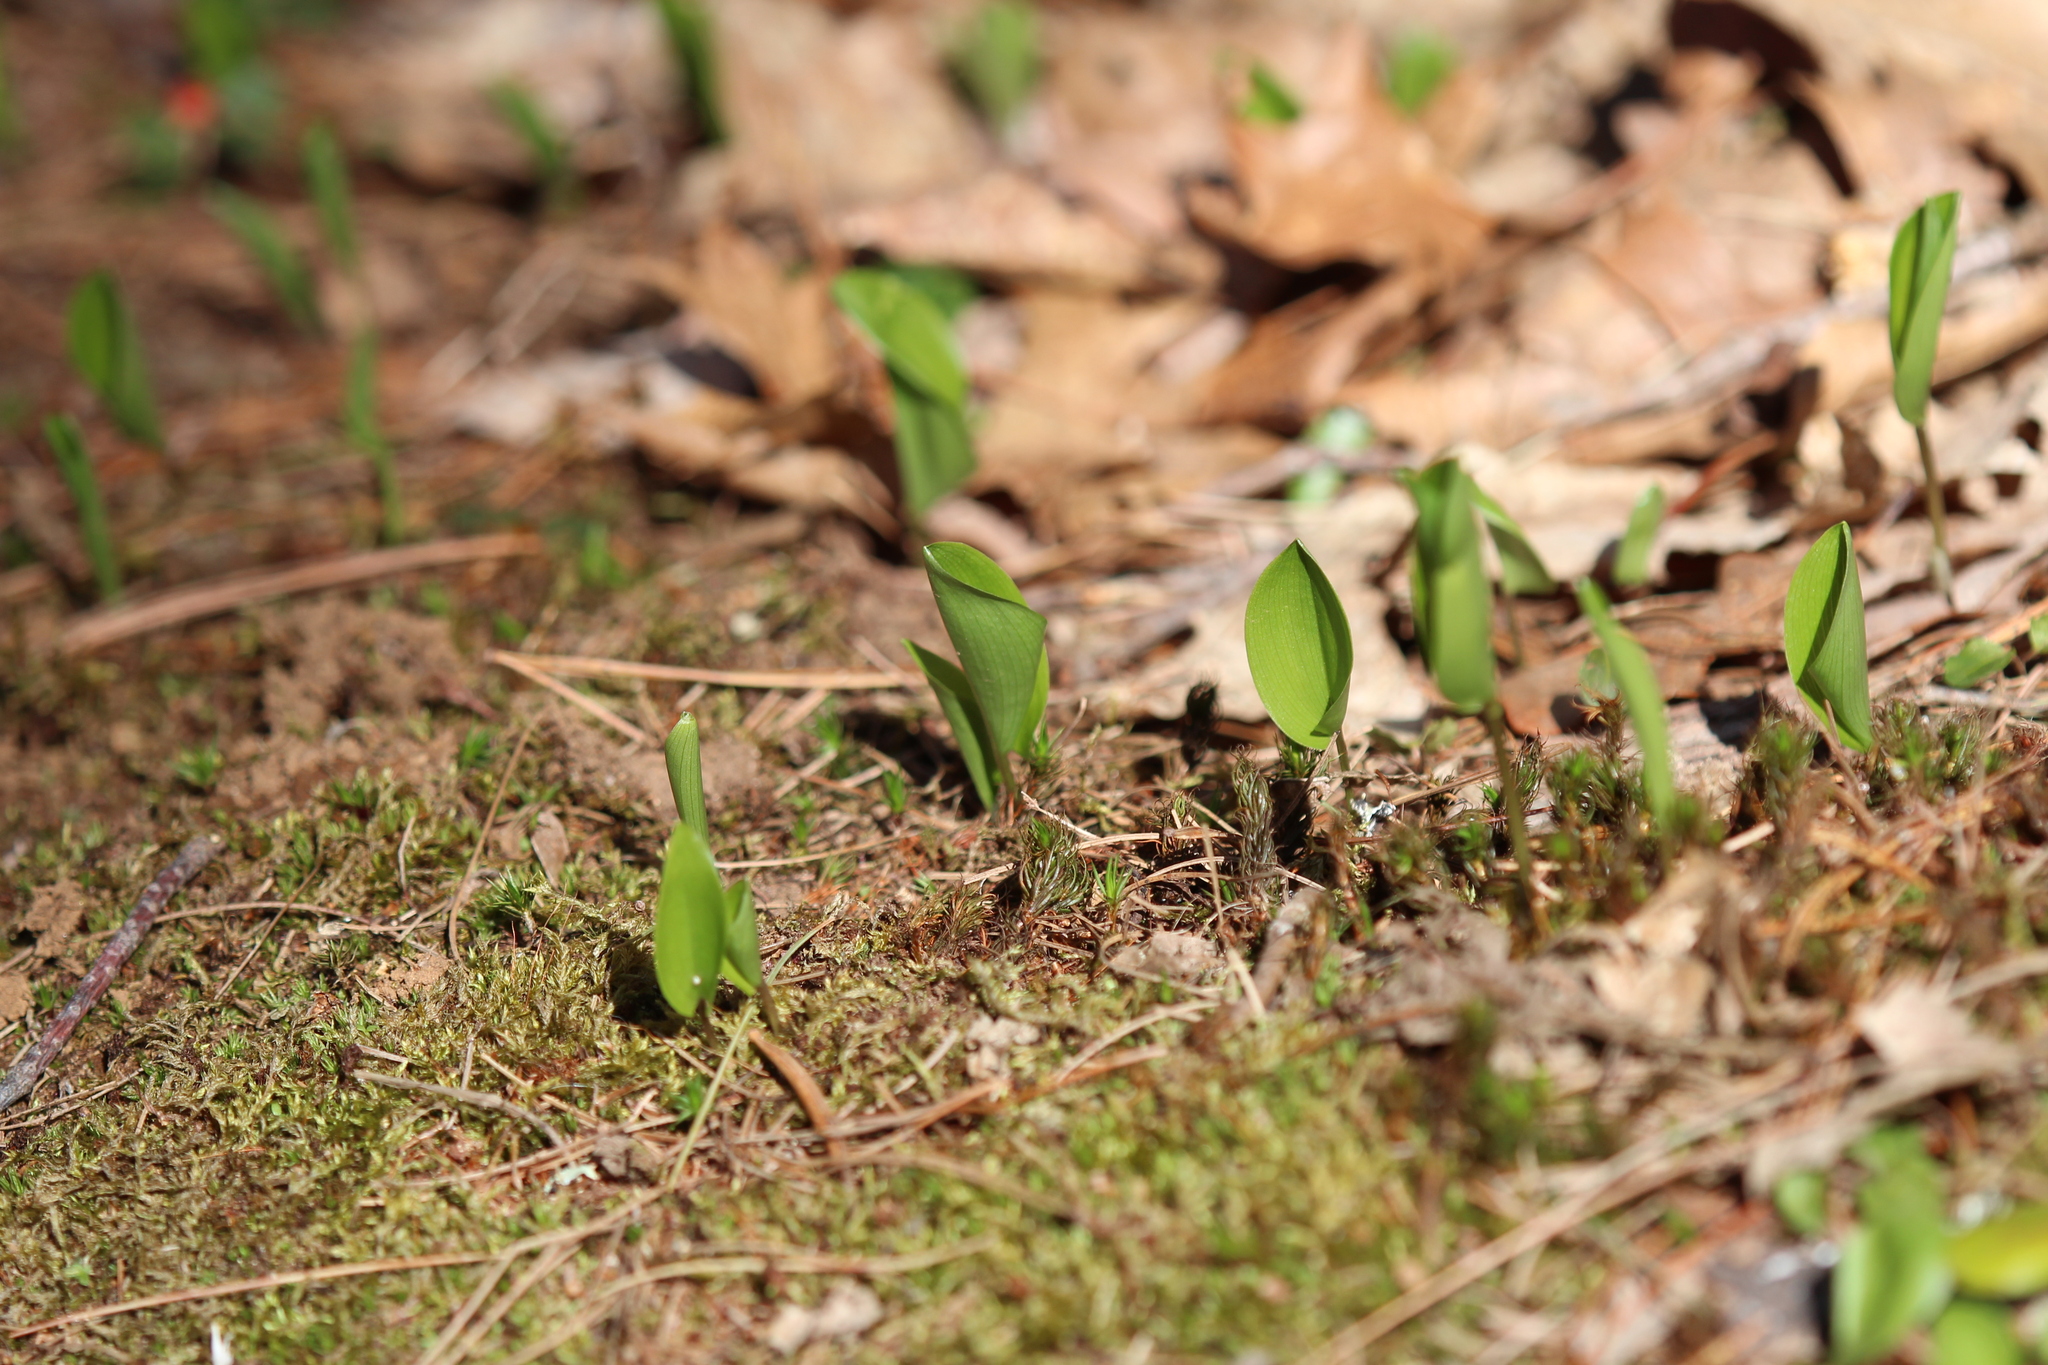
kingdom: Plantae
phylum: Tracheophyta
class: Liliopsida
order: Asparagales
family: Asparagaceae
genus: Maianthemum
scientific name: Maianthemum canadense
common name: False lily-of-the-valley
